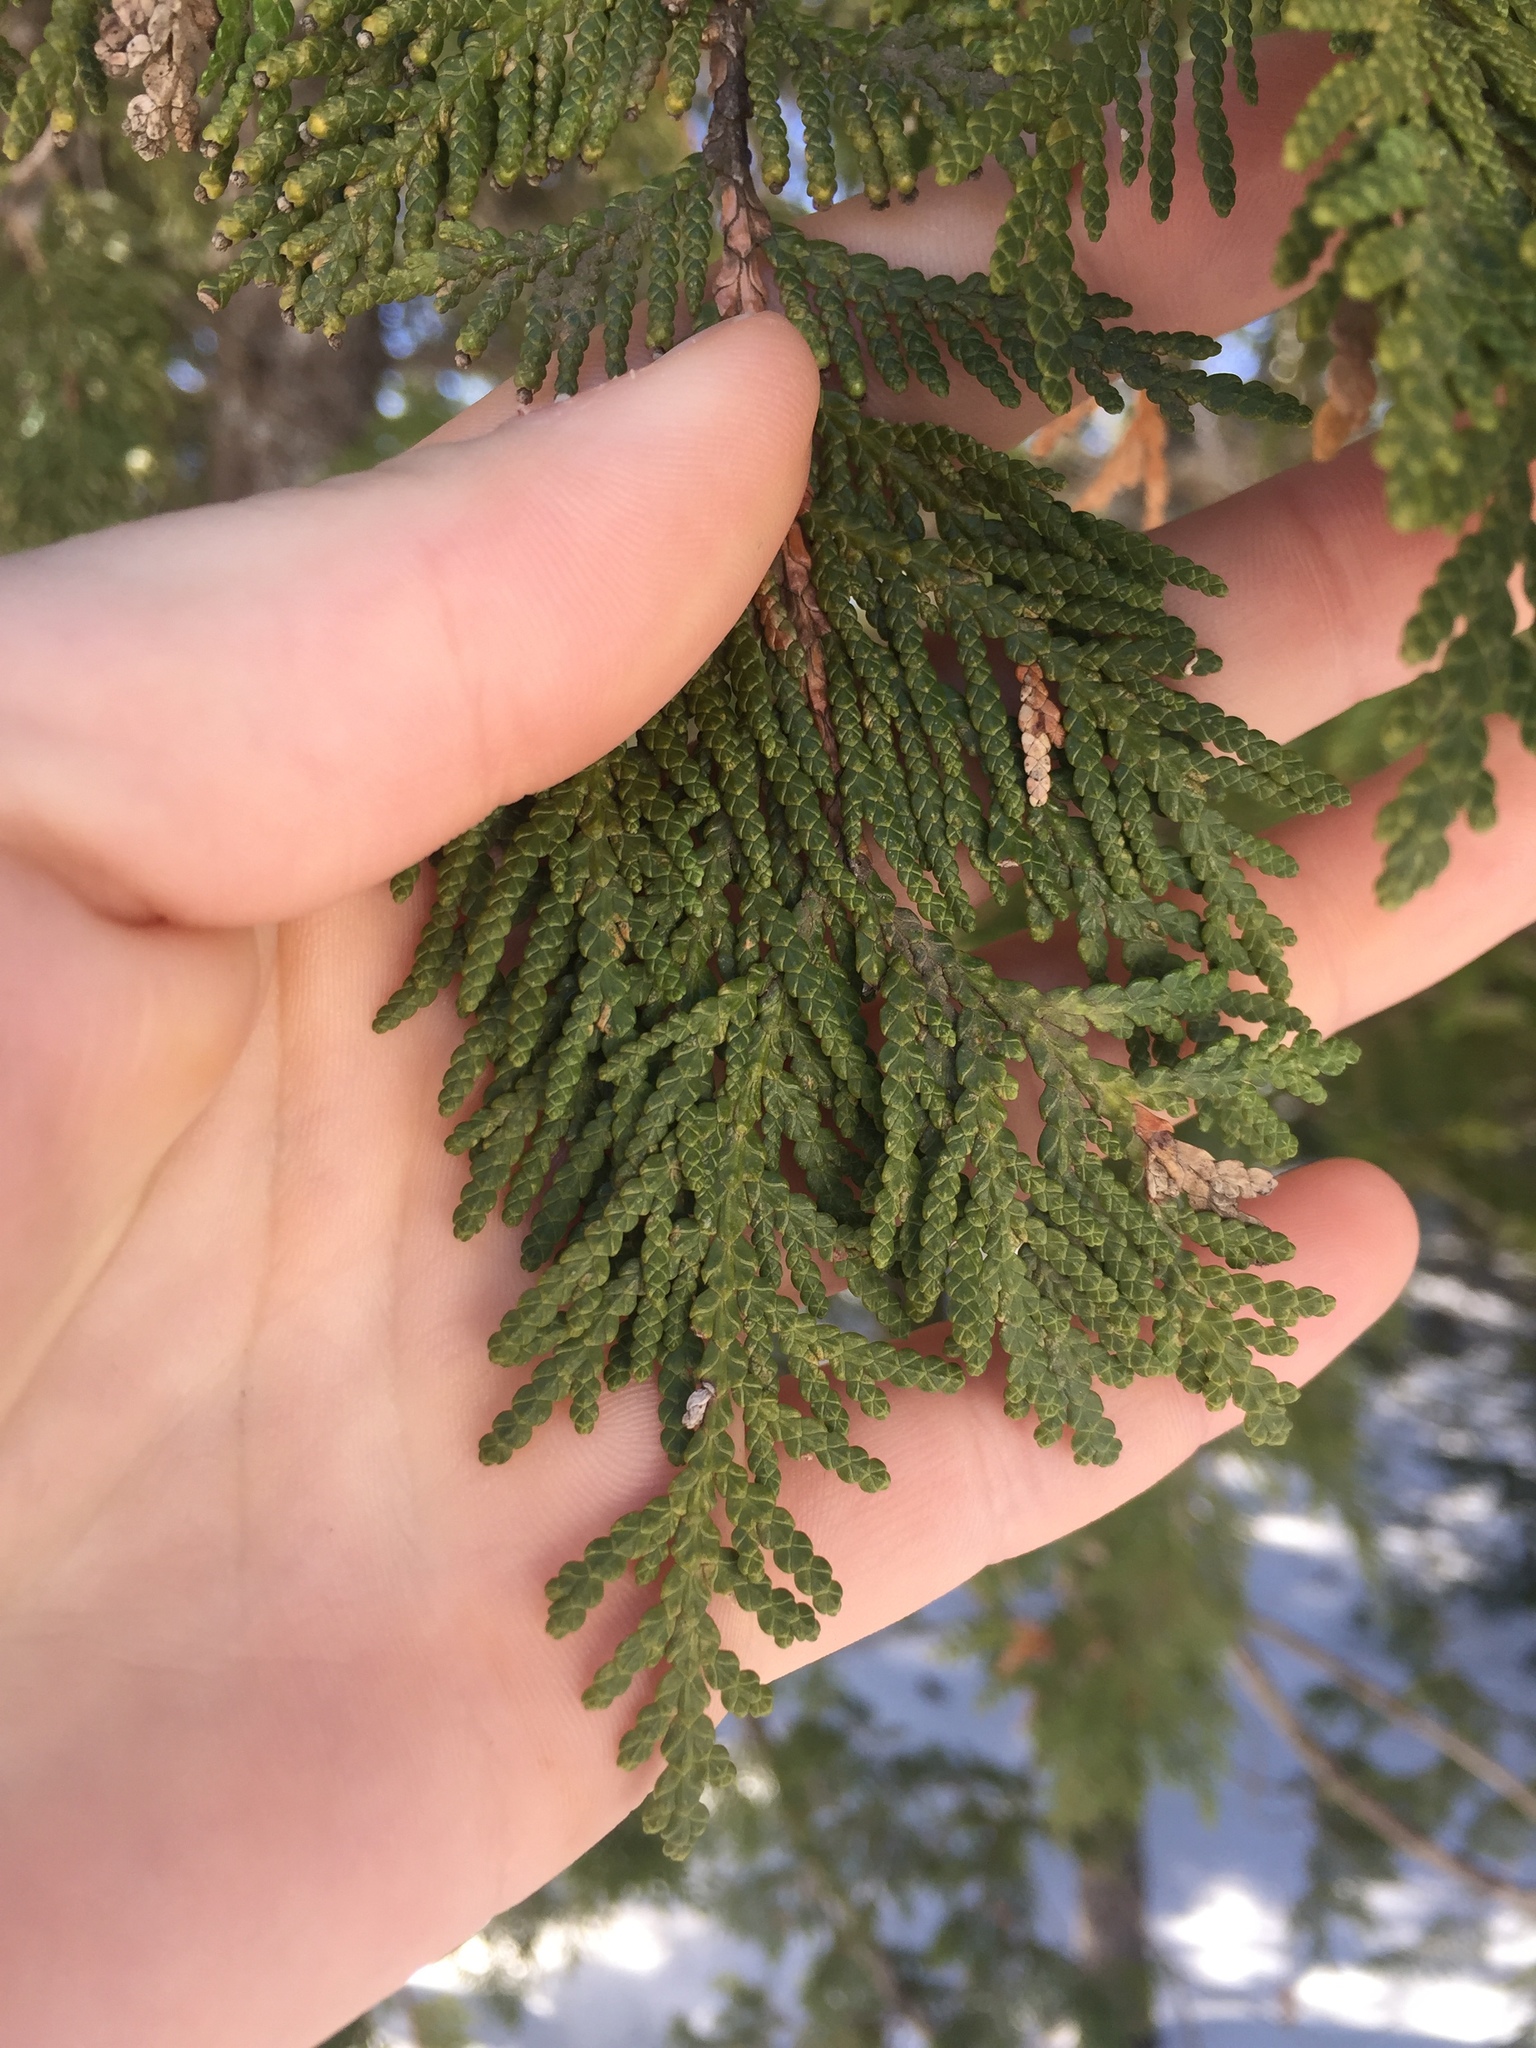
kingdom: Plantae
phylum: Tracheophyta
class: Pinopsida
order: Pinales
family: Cupressaceae
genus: Thuja
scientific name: Thuja occidentalis
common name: Northern white-cedar
